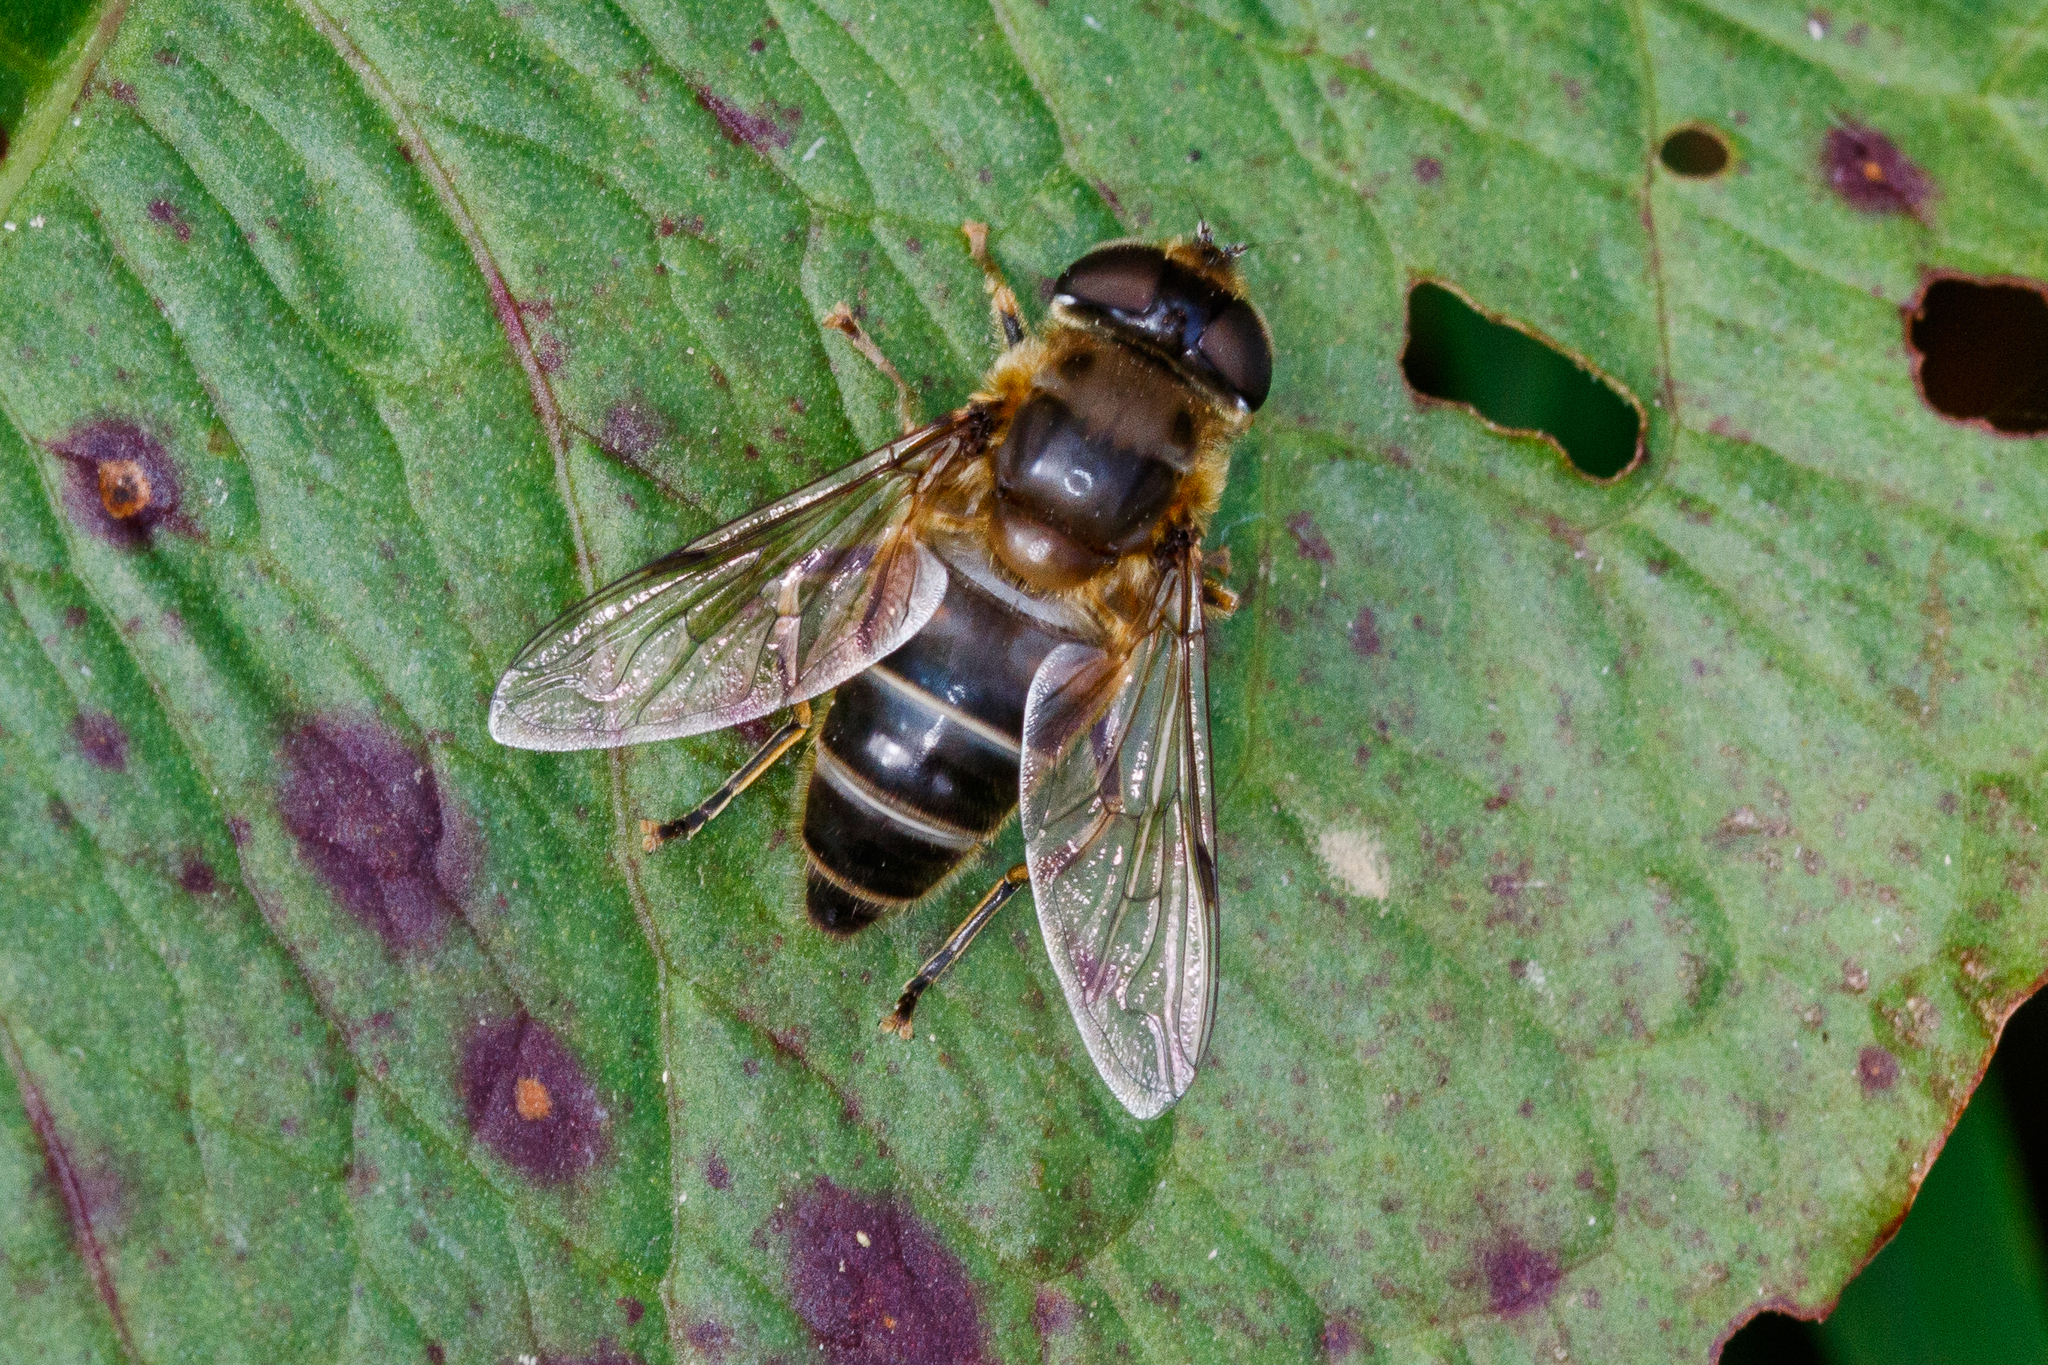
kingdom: Animalia
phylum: Arthropoda
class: Insecta
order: Diptera
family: Syrphidae
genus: Eristalis
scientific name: Eristalis pertinax
